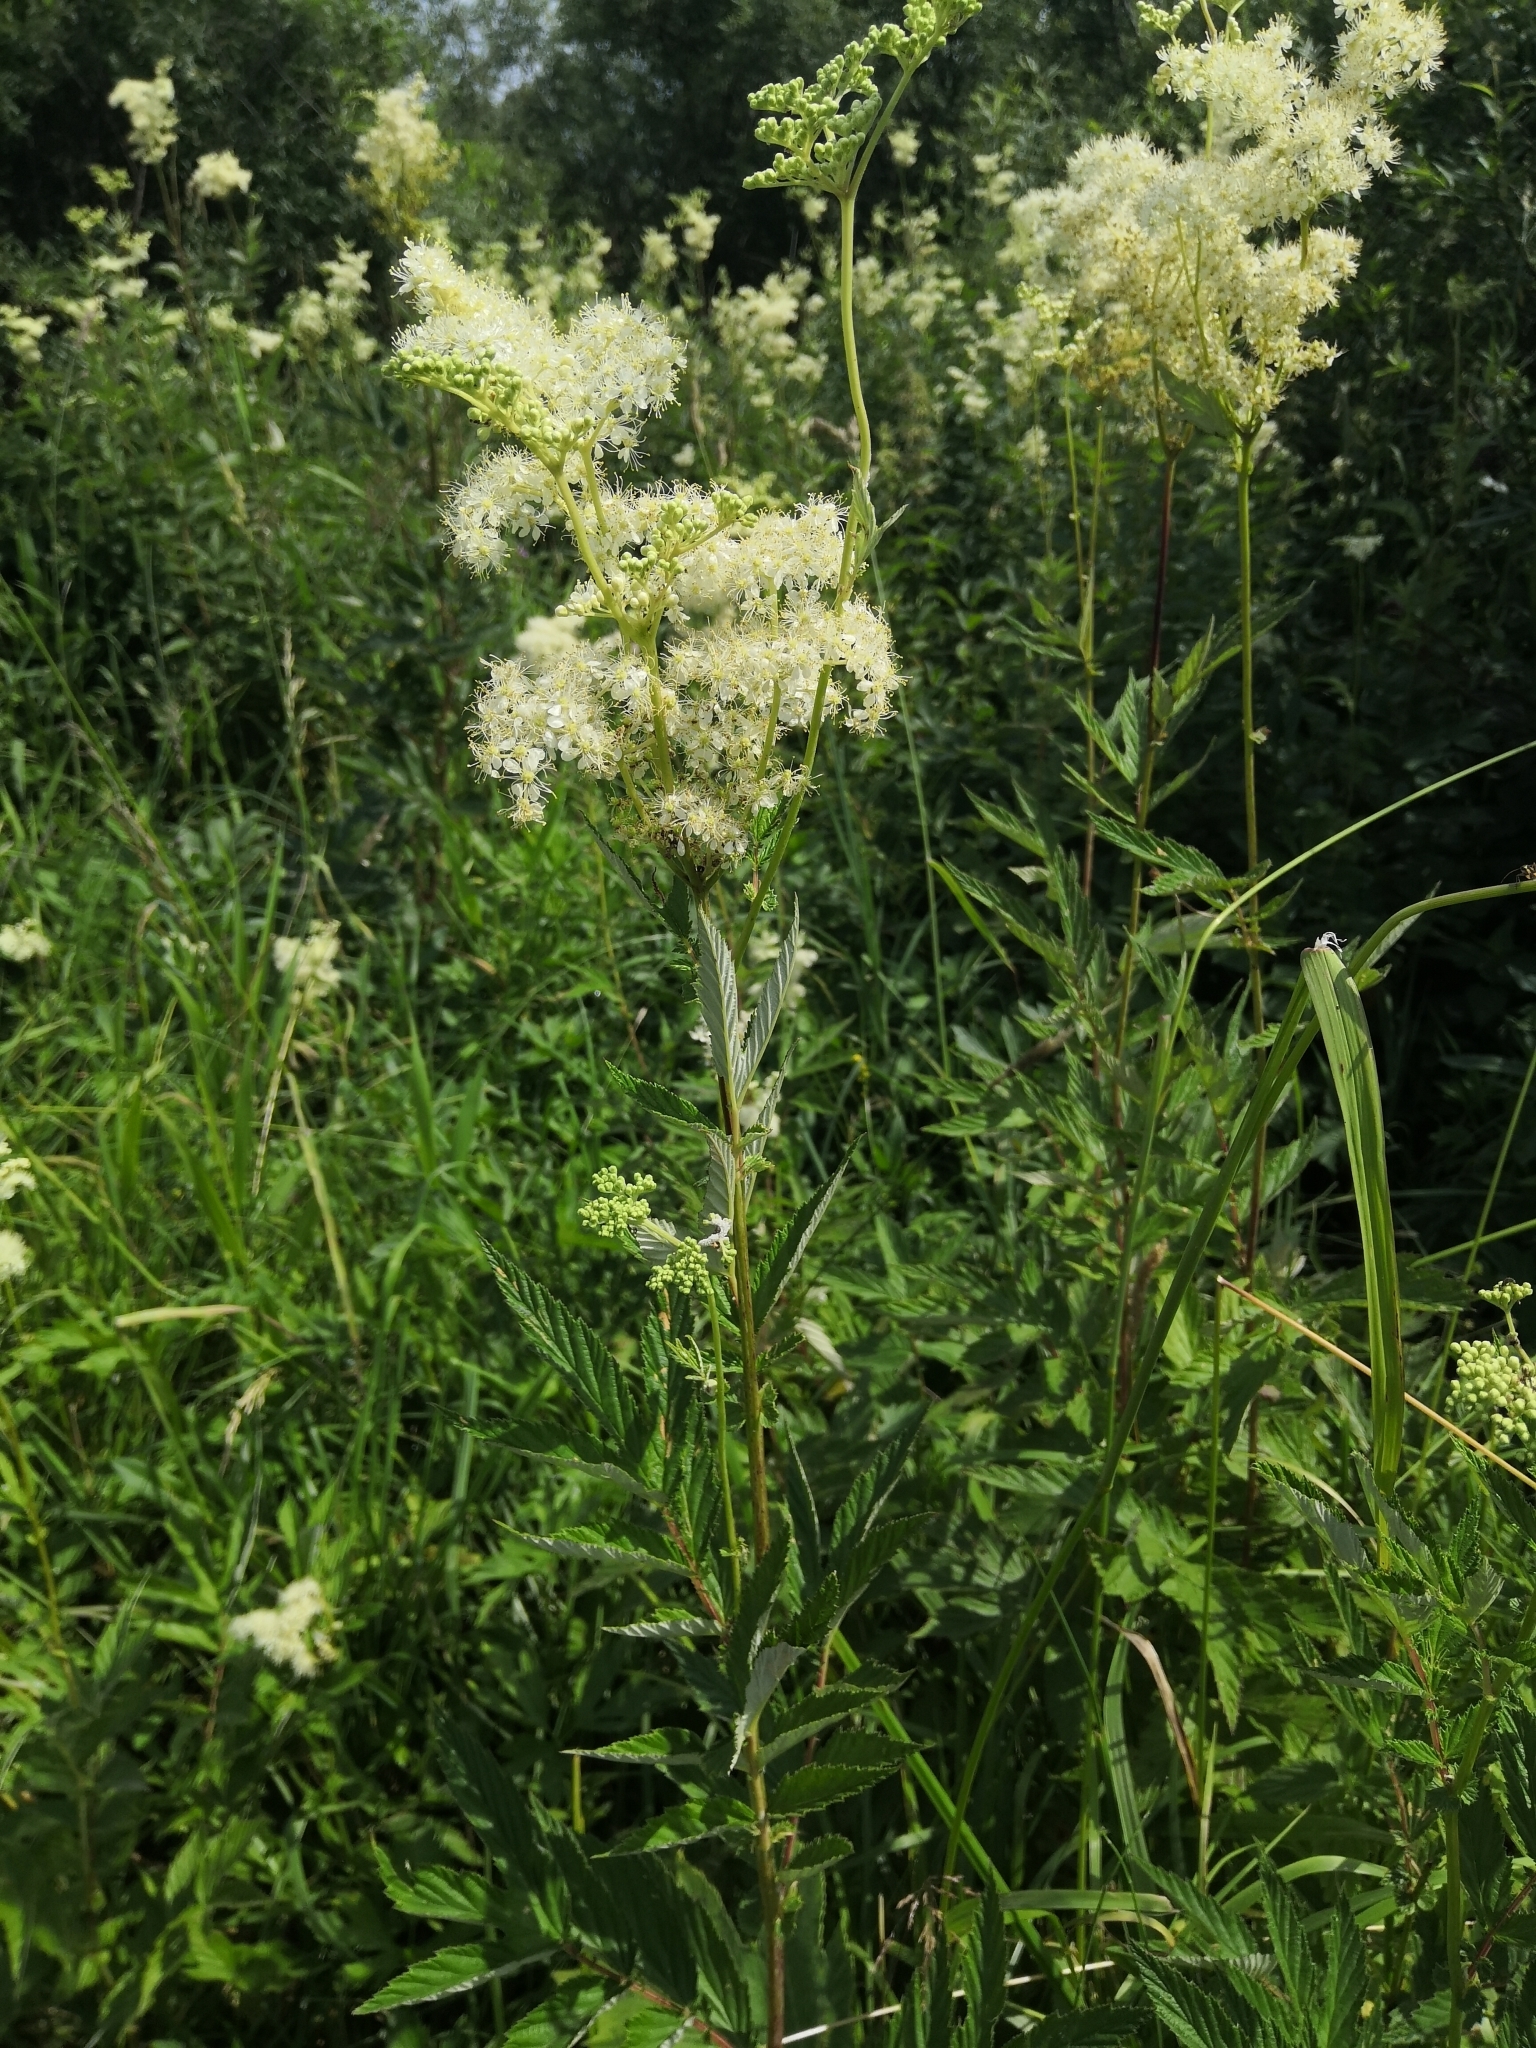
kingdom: Plantae
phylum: Tracheophyta
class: Magnoliopsida
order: Rosales
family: Rosaceae
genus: Filipendula
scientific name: Filipendula ulmaria
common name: Meadowsweet
